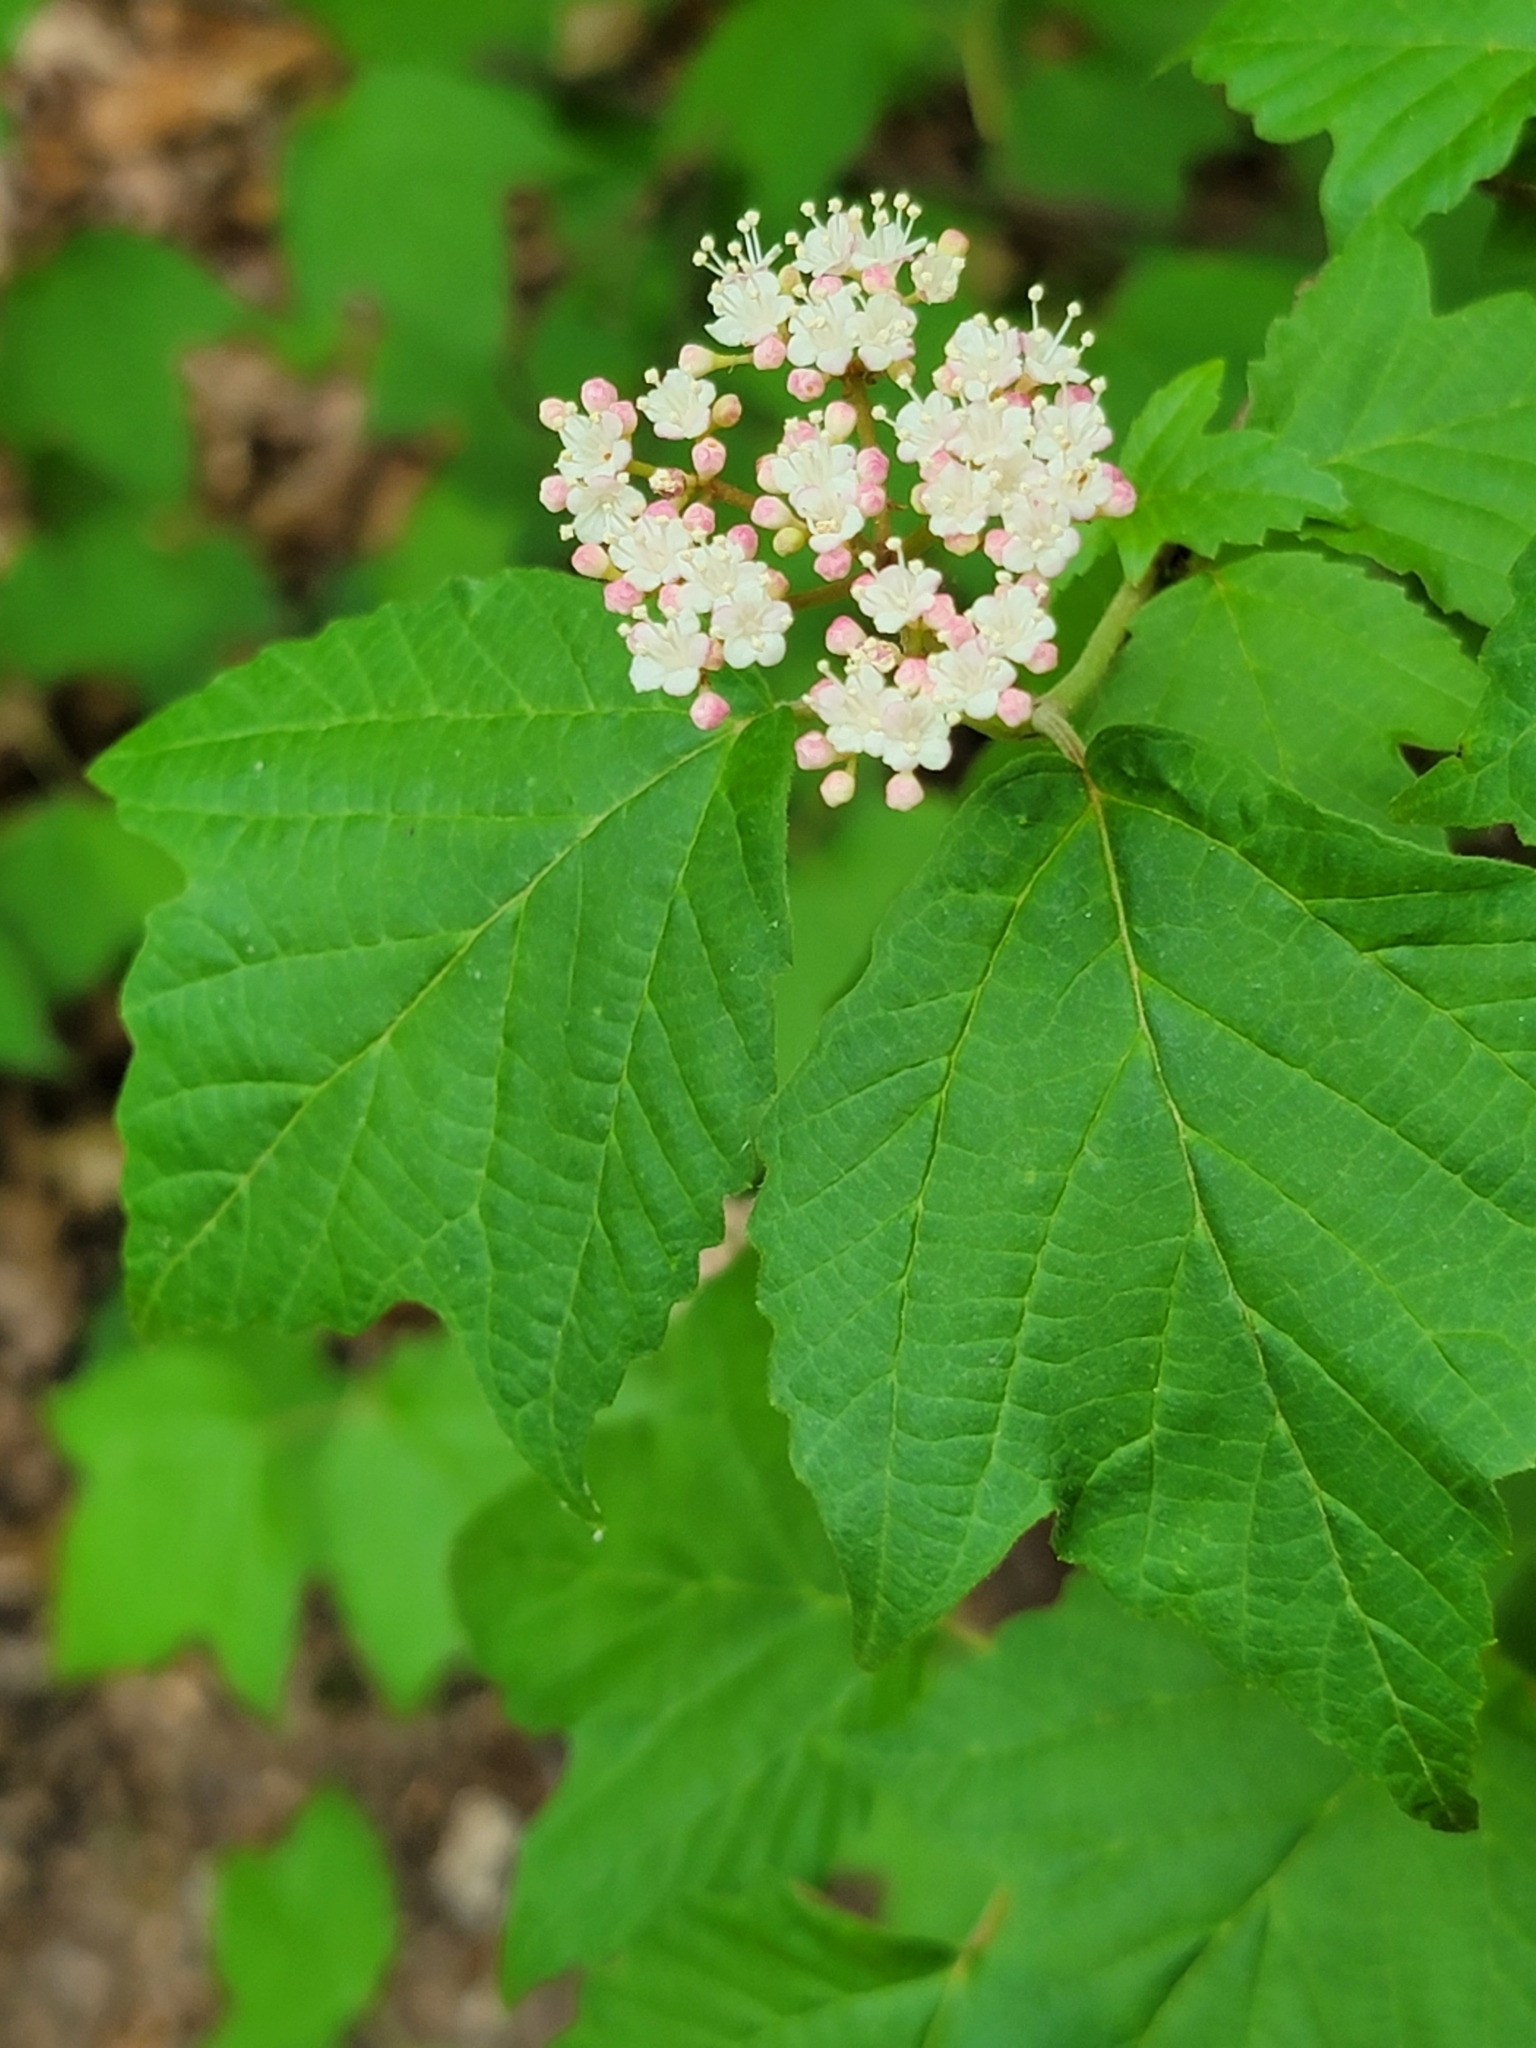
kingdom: Plantae
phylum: Tracheophyta
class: Magnoliopsida
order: Dipsacales
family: Viburnaceae
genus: Viburnum
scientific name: Viburnum acerifolium
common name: Dockmackie
